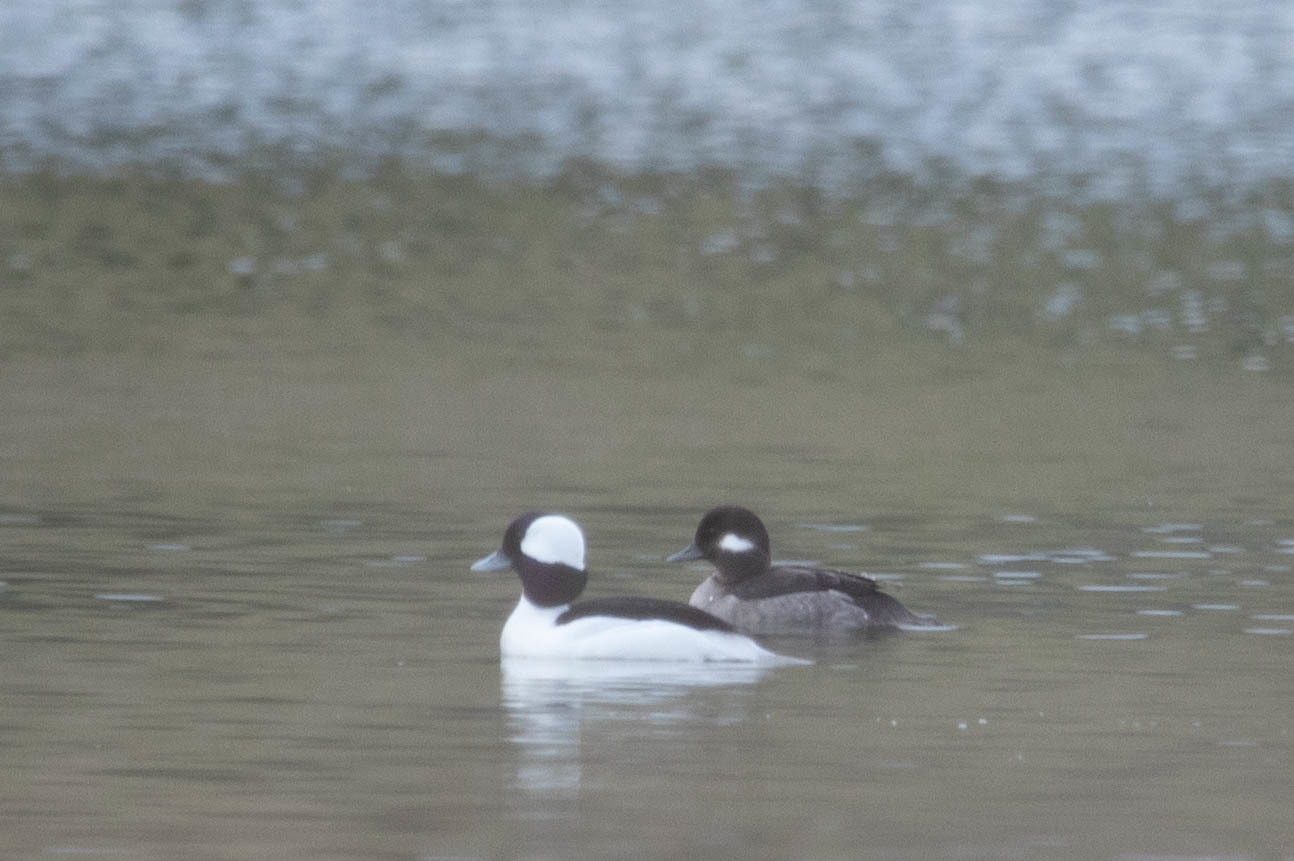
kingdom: Animalia
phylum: Chordata
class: Aves
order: Anseriformes
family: Anatidae
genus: Bucephala
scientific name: Bucephala albeola
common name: Bufflehead
